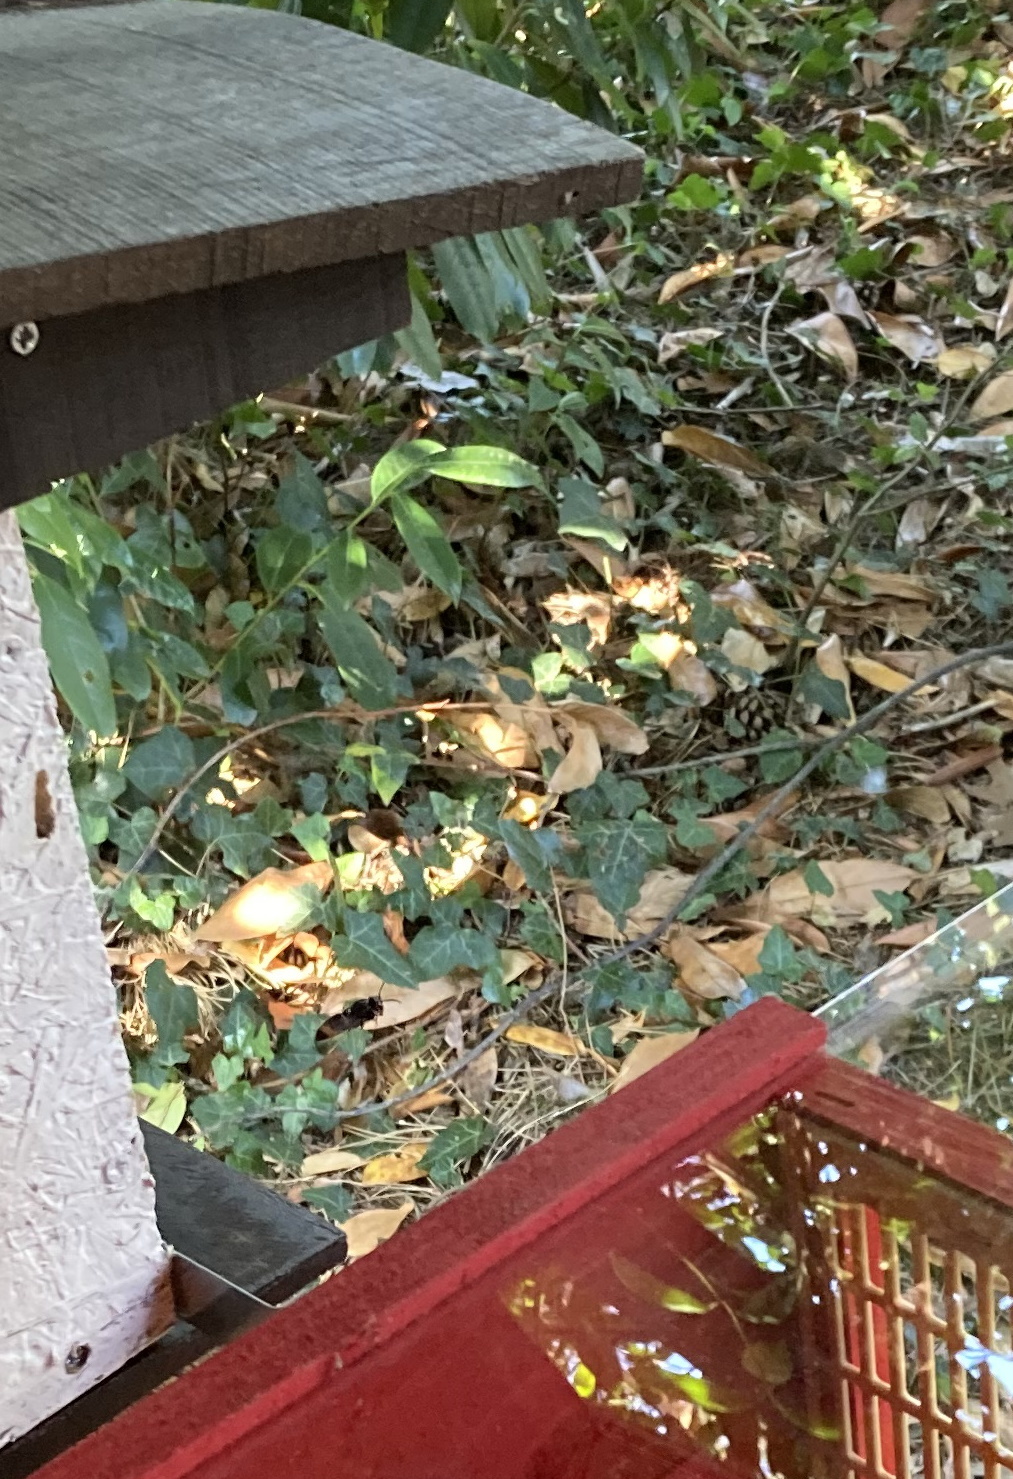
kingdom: Animalia
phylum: Arthropoda
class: Insecta
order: Hymenoptera
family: Vespidae
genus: Vespa
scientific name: Vespa velutina
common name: Asian hornet
